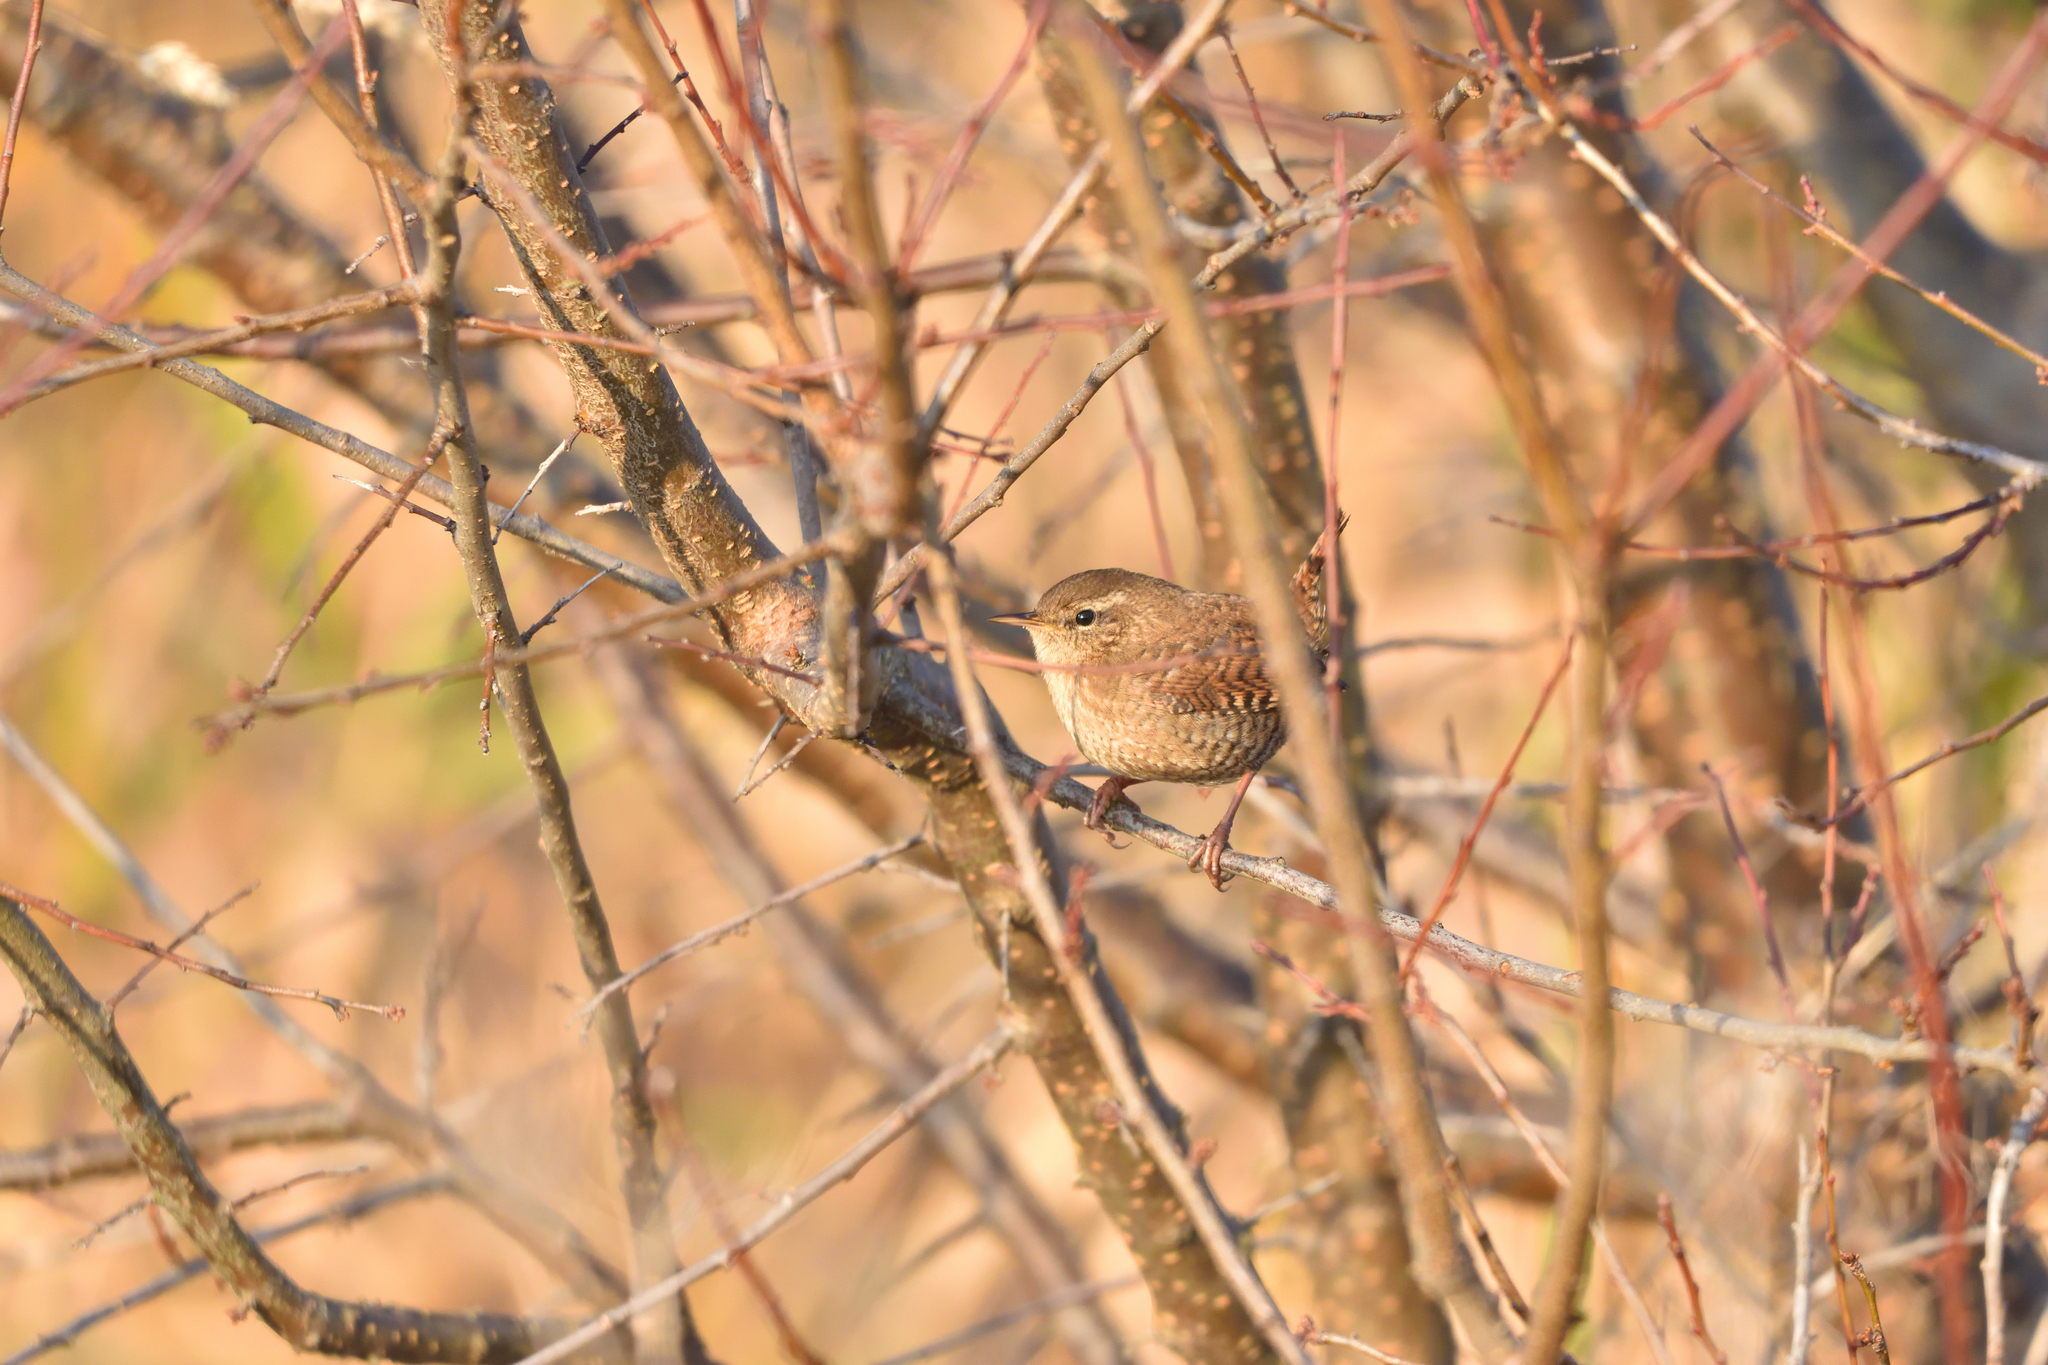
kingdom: Animalia
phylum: Chordata
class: Aves
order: Passeriformes
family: Troglodytidae
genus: Troglodytes
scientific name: Troglodytes troglodytes
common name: Eurasian wren
